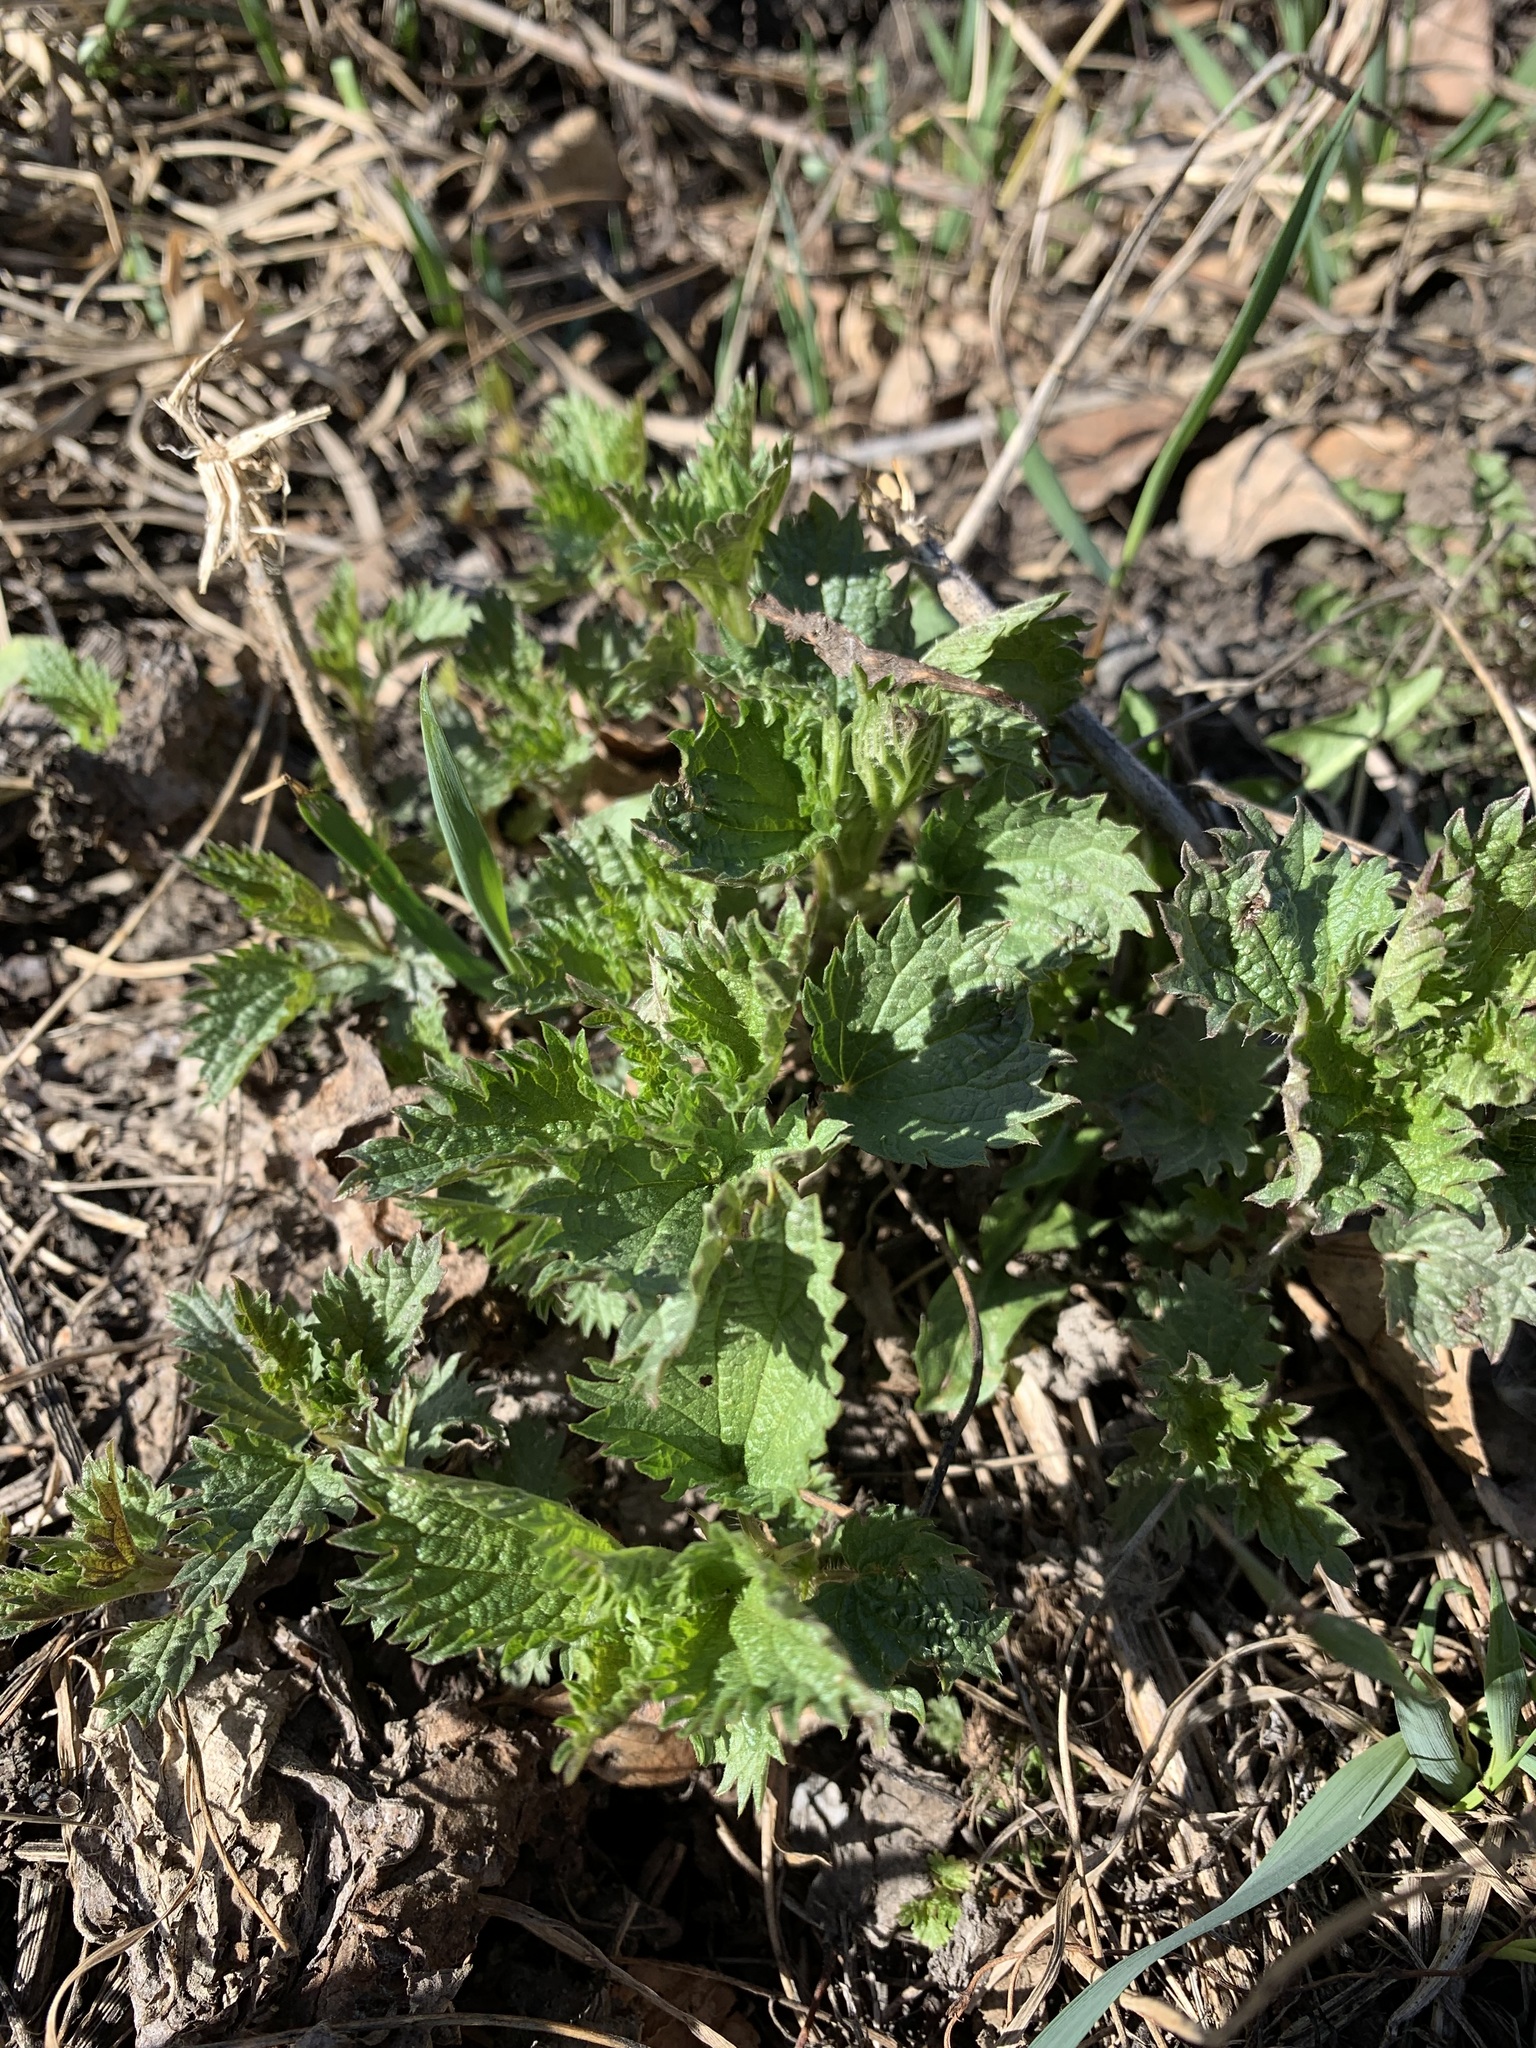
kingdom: Plantae
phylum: Tracheophyta
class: Magnoliopsida
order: Rosales
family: Urticaceae
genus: Urtica
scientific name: Urtica dioica
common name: Common nettle
